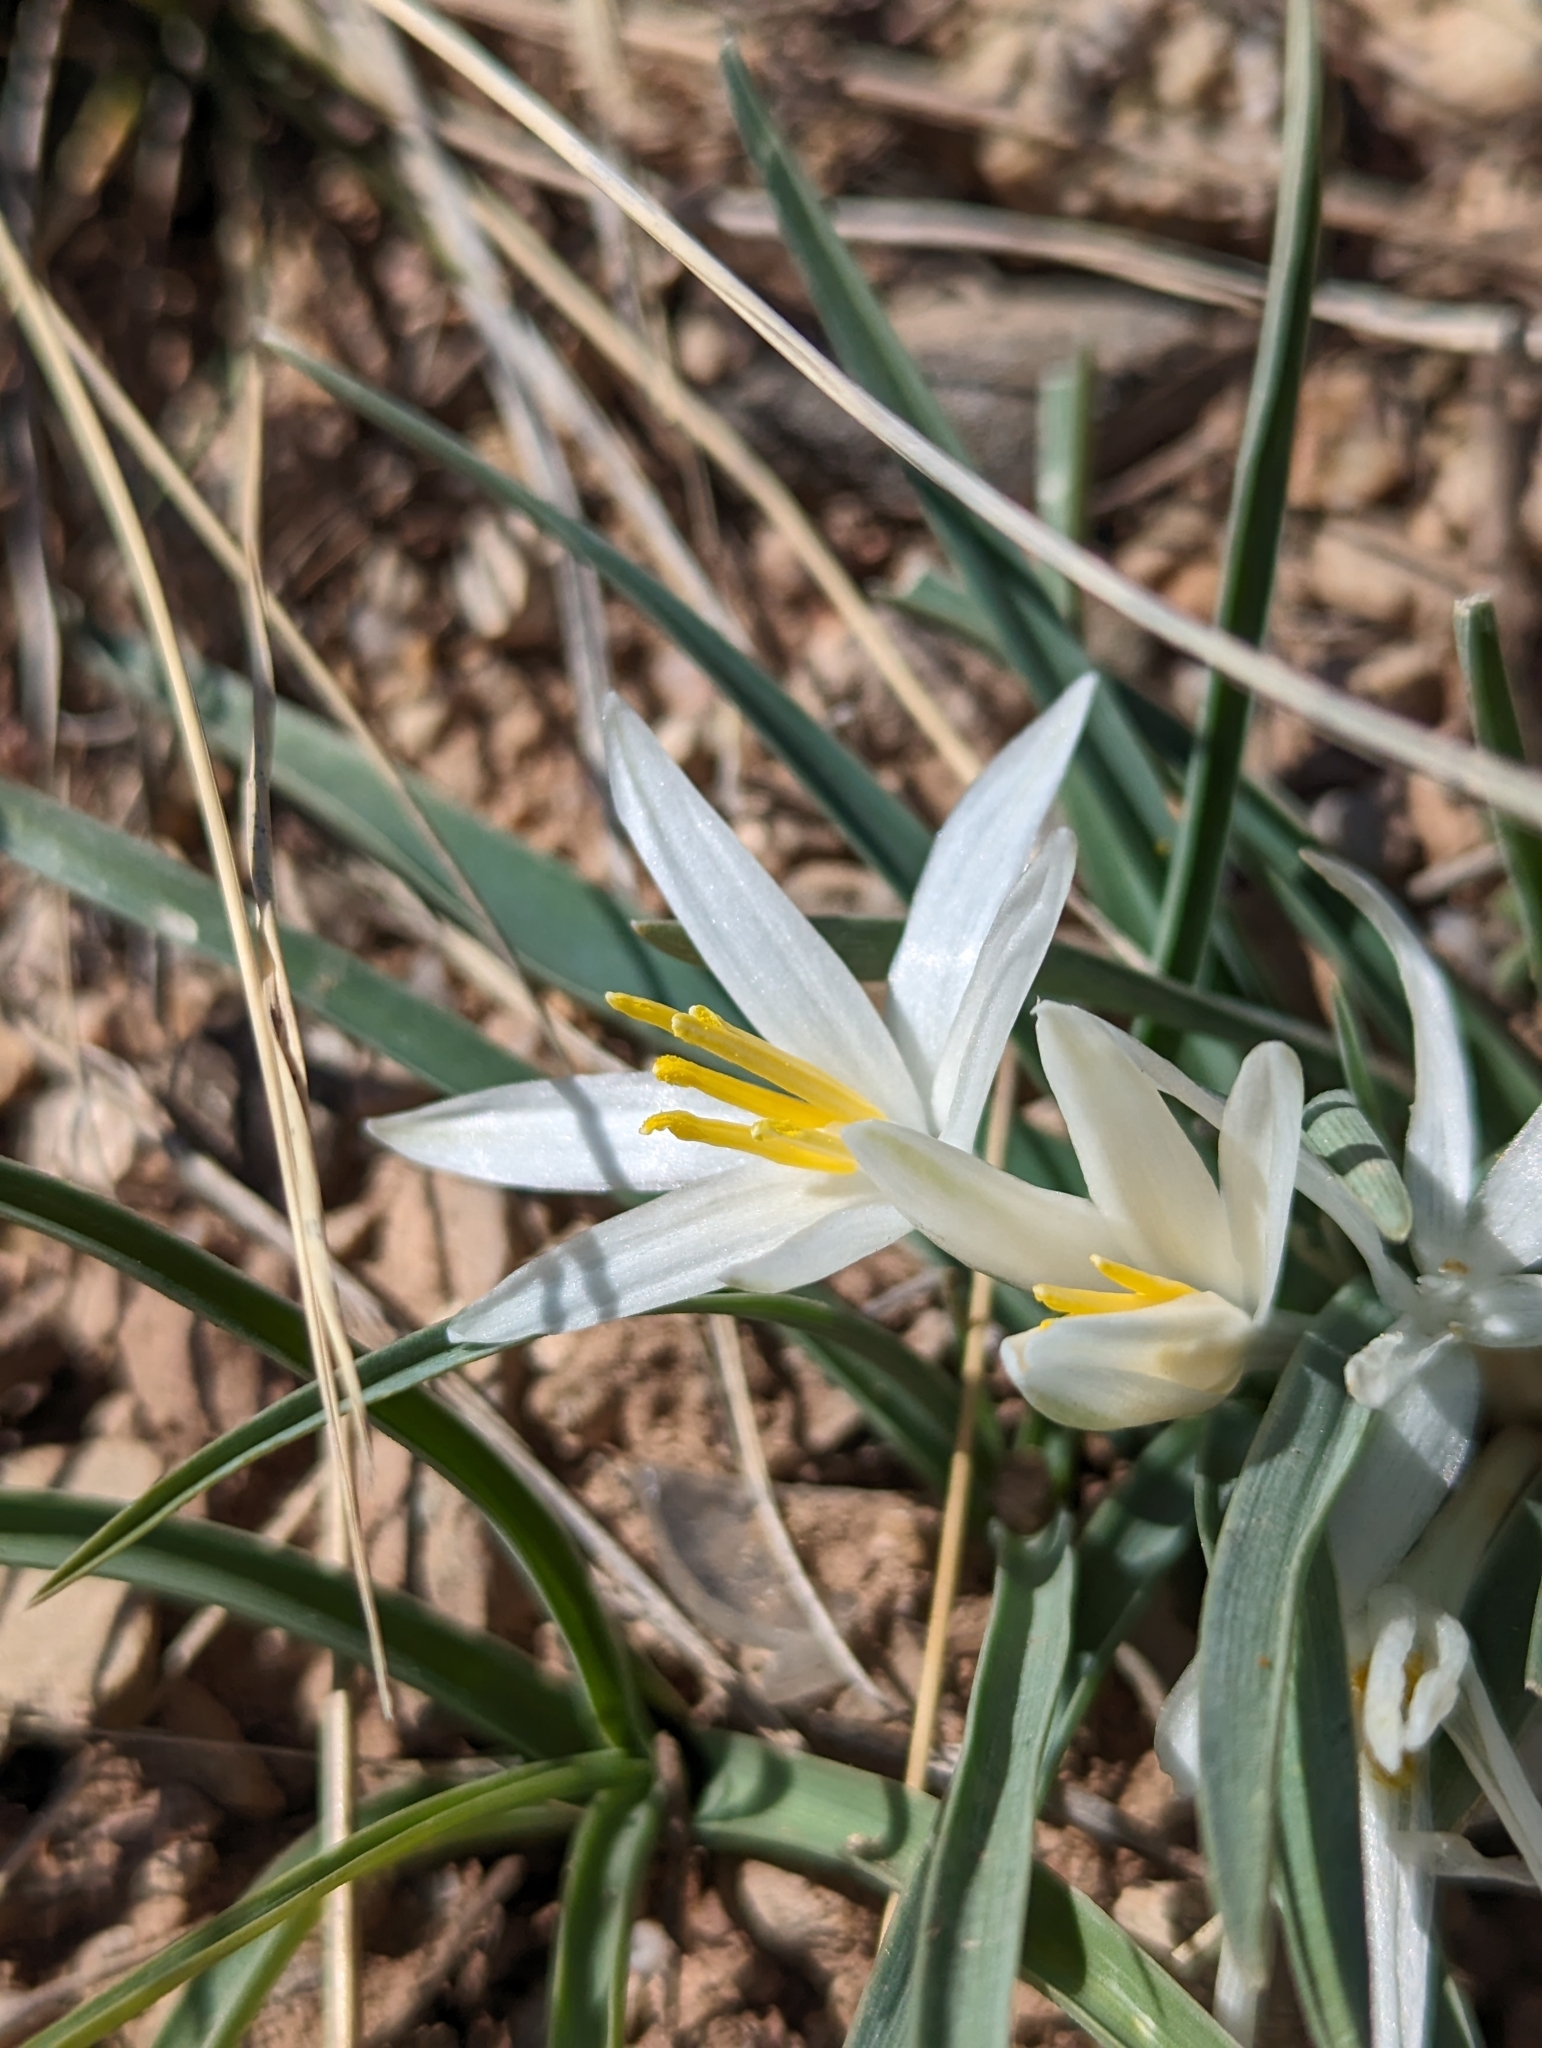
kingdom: Plantae
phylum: Tracheophyta
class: Liliopsida
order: Asparagales
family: Asparagaceae
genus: Leucocrinum
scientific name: Leucocrinum montanum
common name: Mountain-lily
